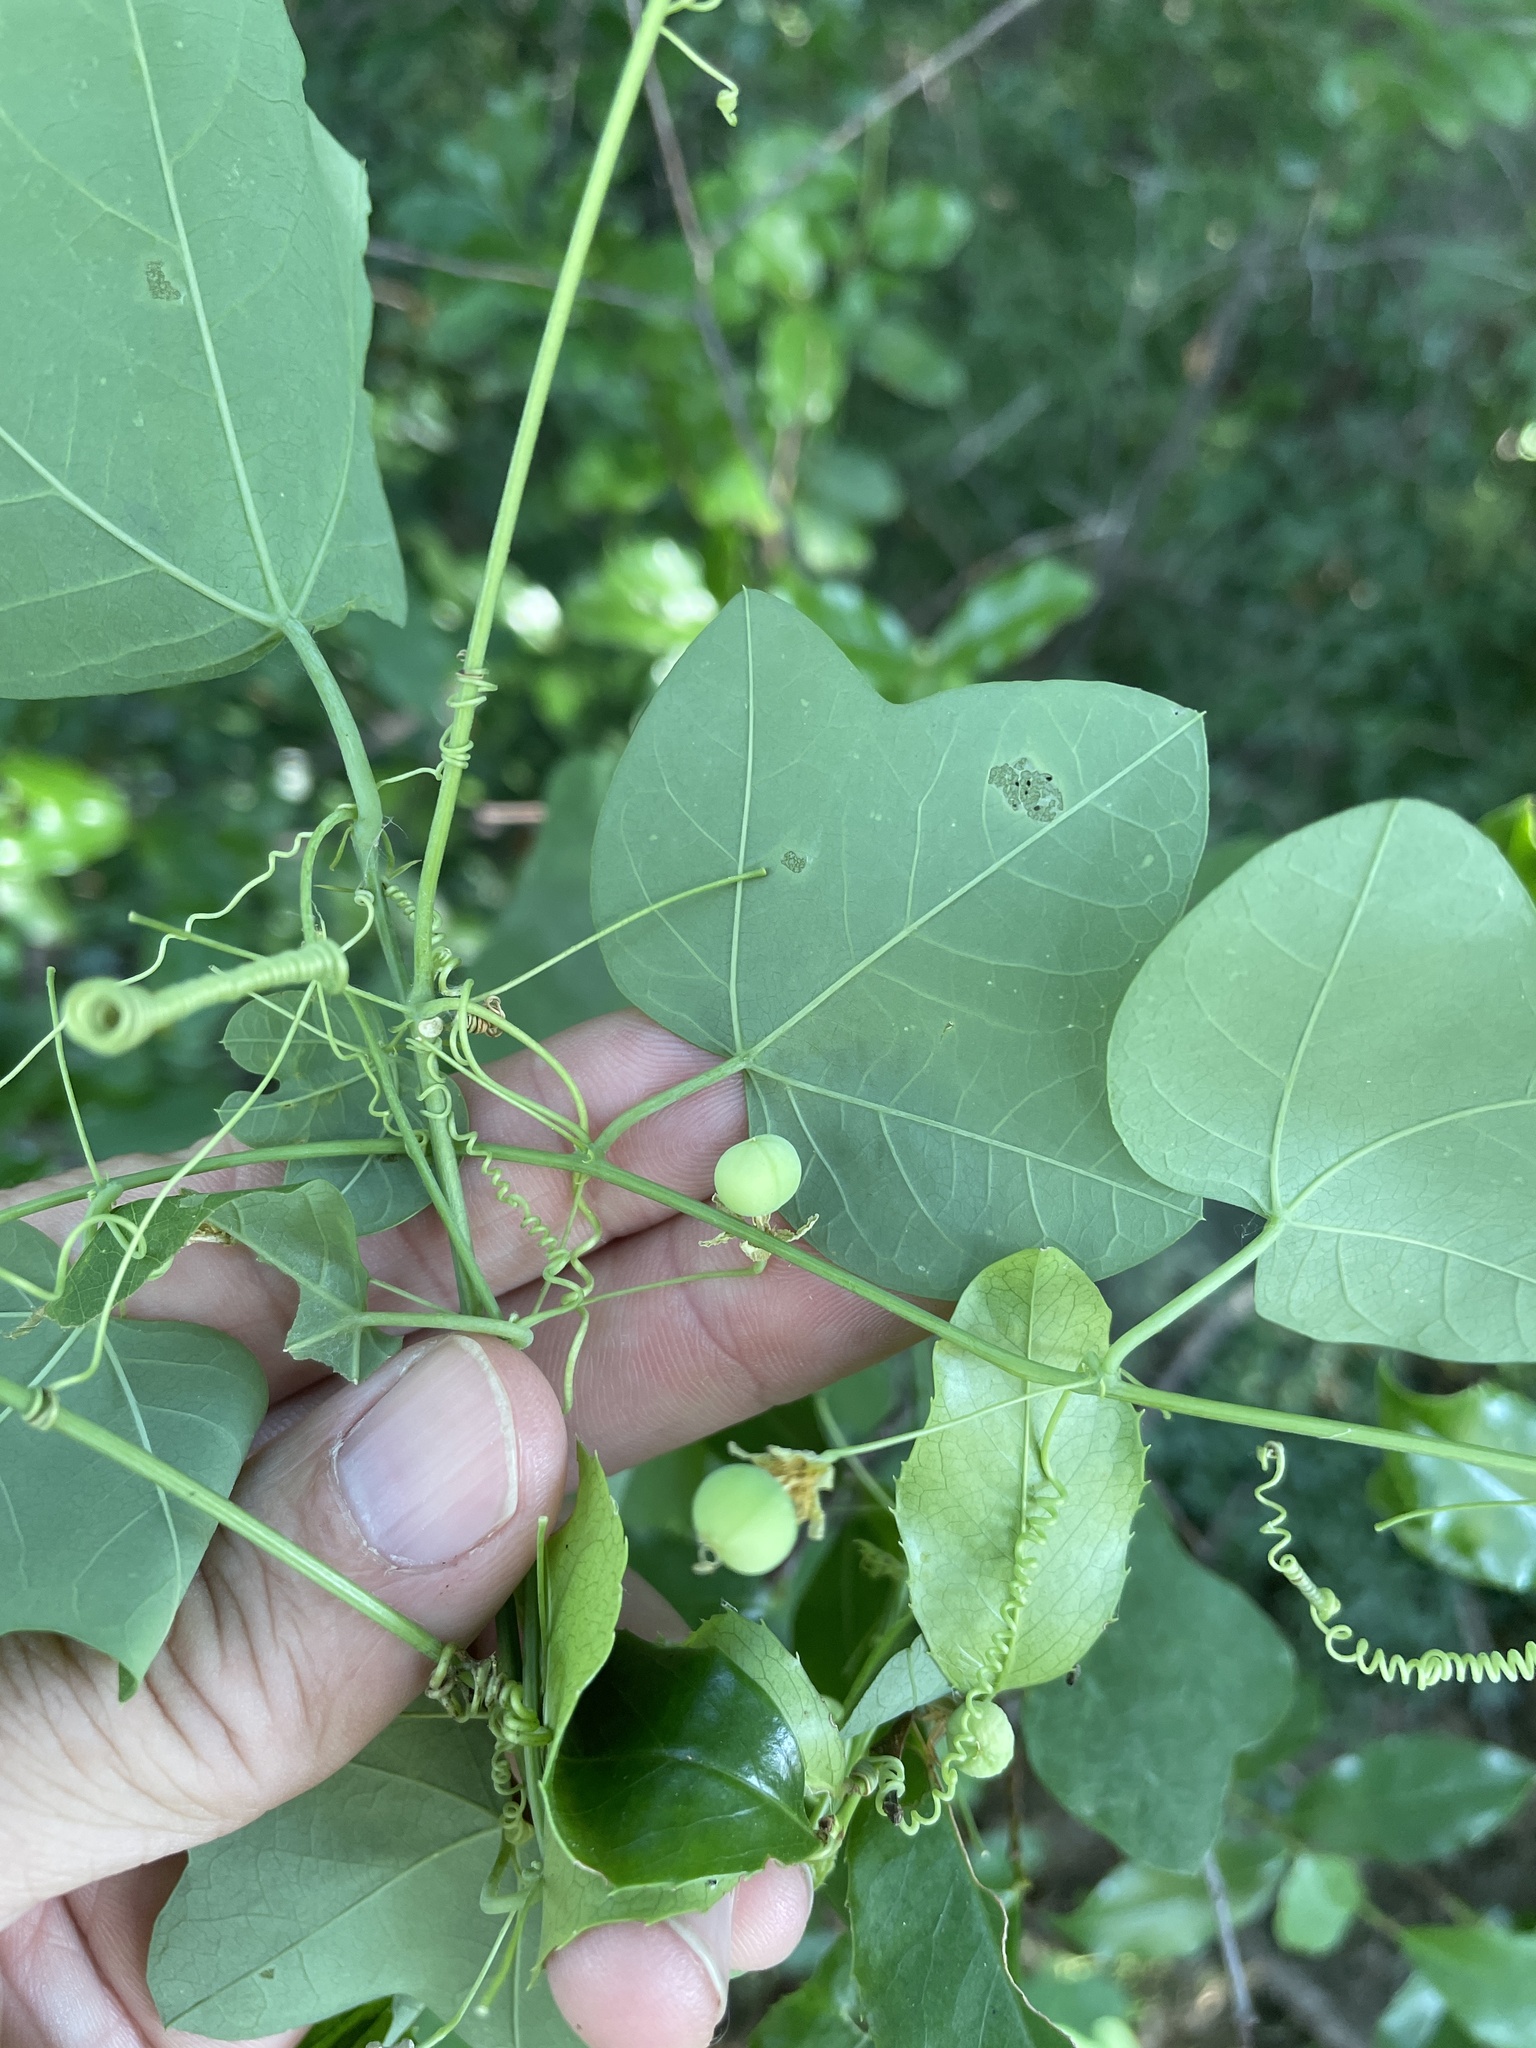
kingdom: Plantae
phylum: Tracheophyta
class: Magnoliopsida
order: Malpighiales
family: Passifloraceae
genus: Passiflora
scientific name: Passiflora lutea
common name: Yellow passionflower
